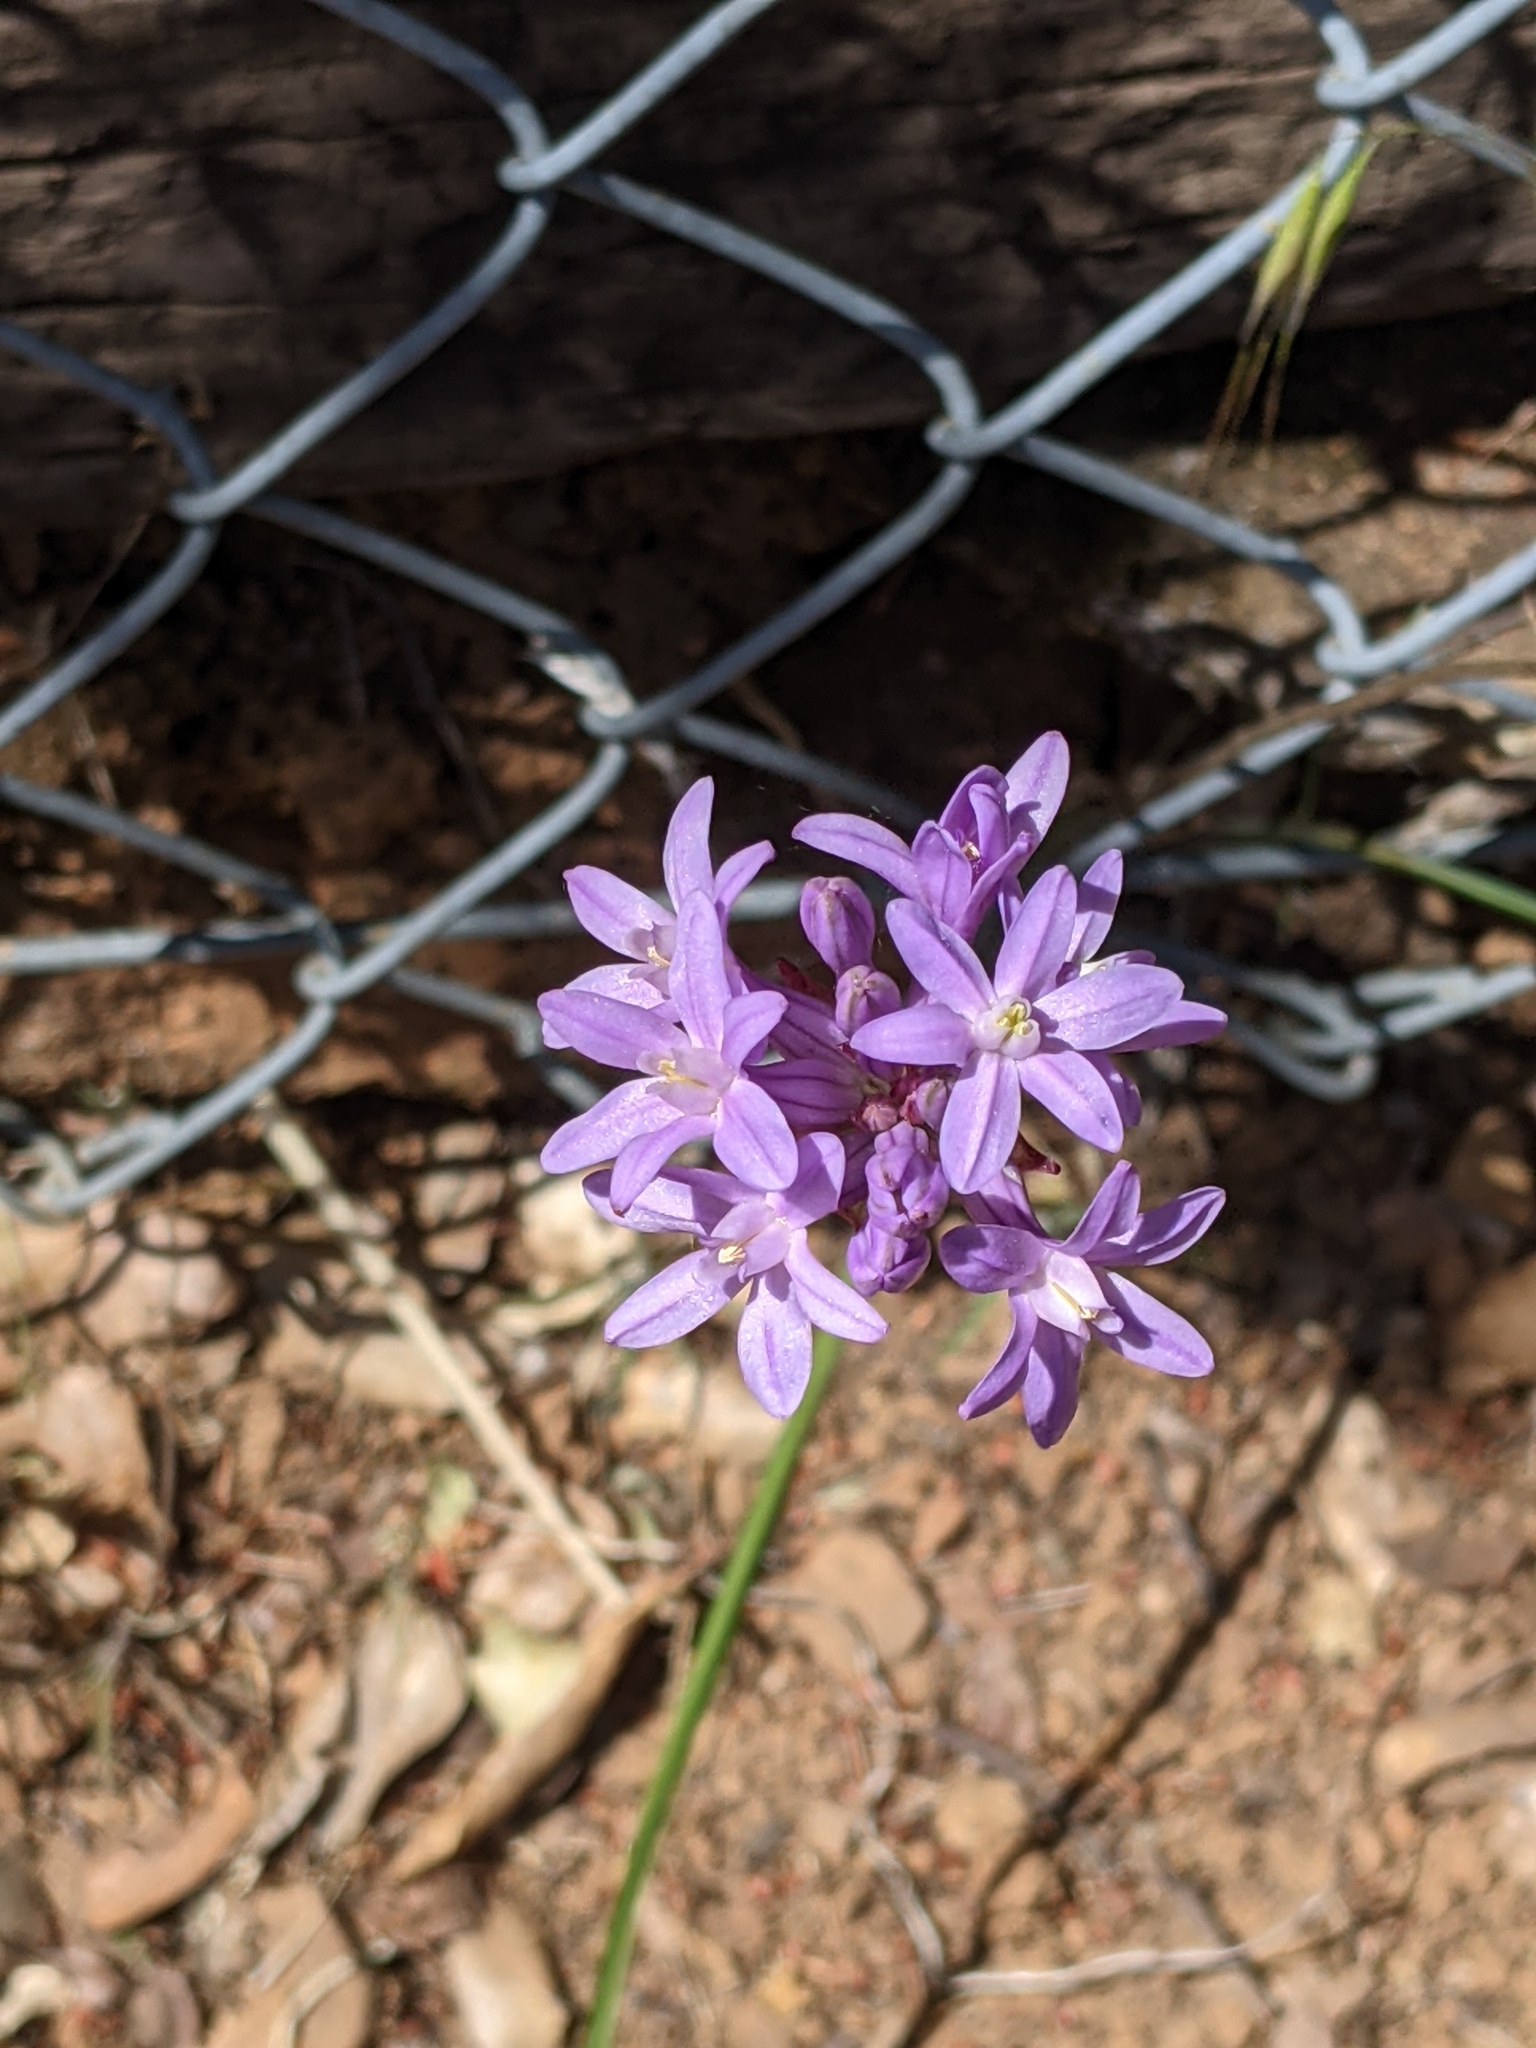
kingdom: Plantae
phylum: Tracheophyta
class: Liliopsida
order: Asparagales
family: Asparagaceae
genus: Dichelostemma
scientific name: Dichelostemma multiflorum
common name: Round-tooth ookow
